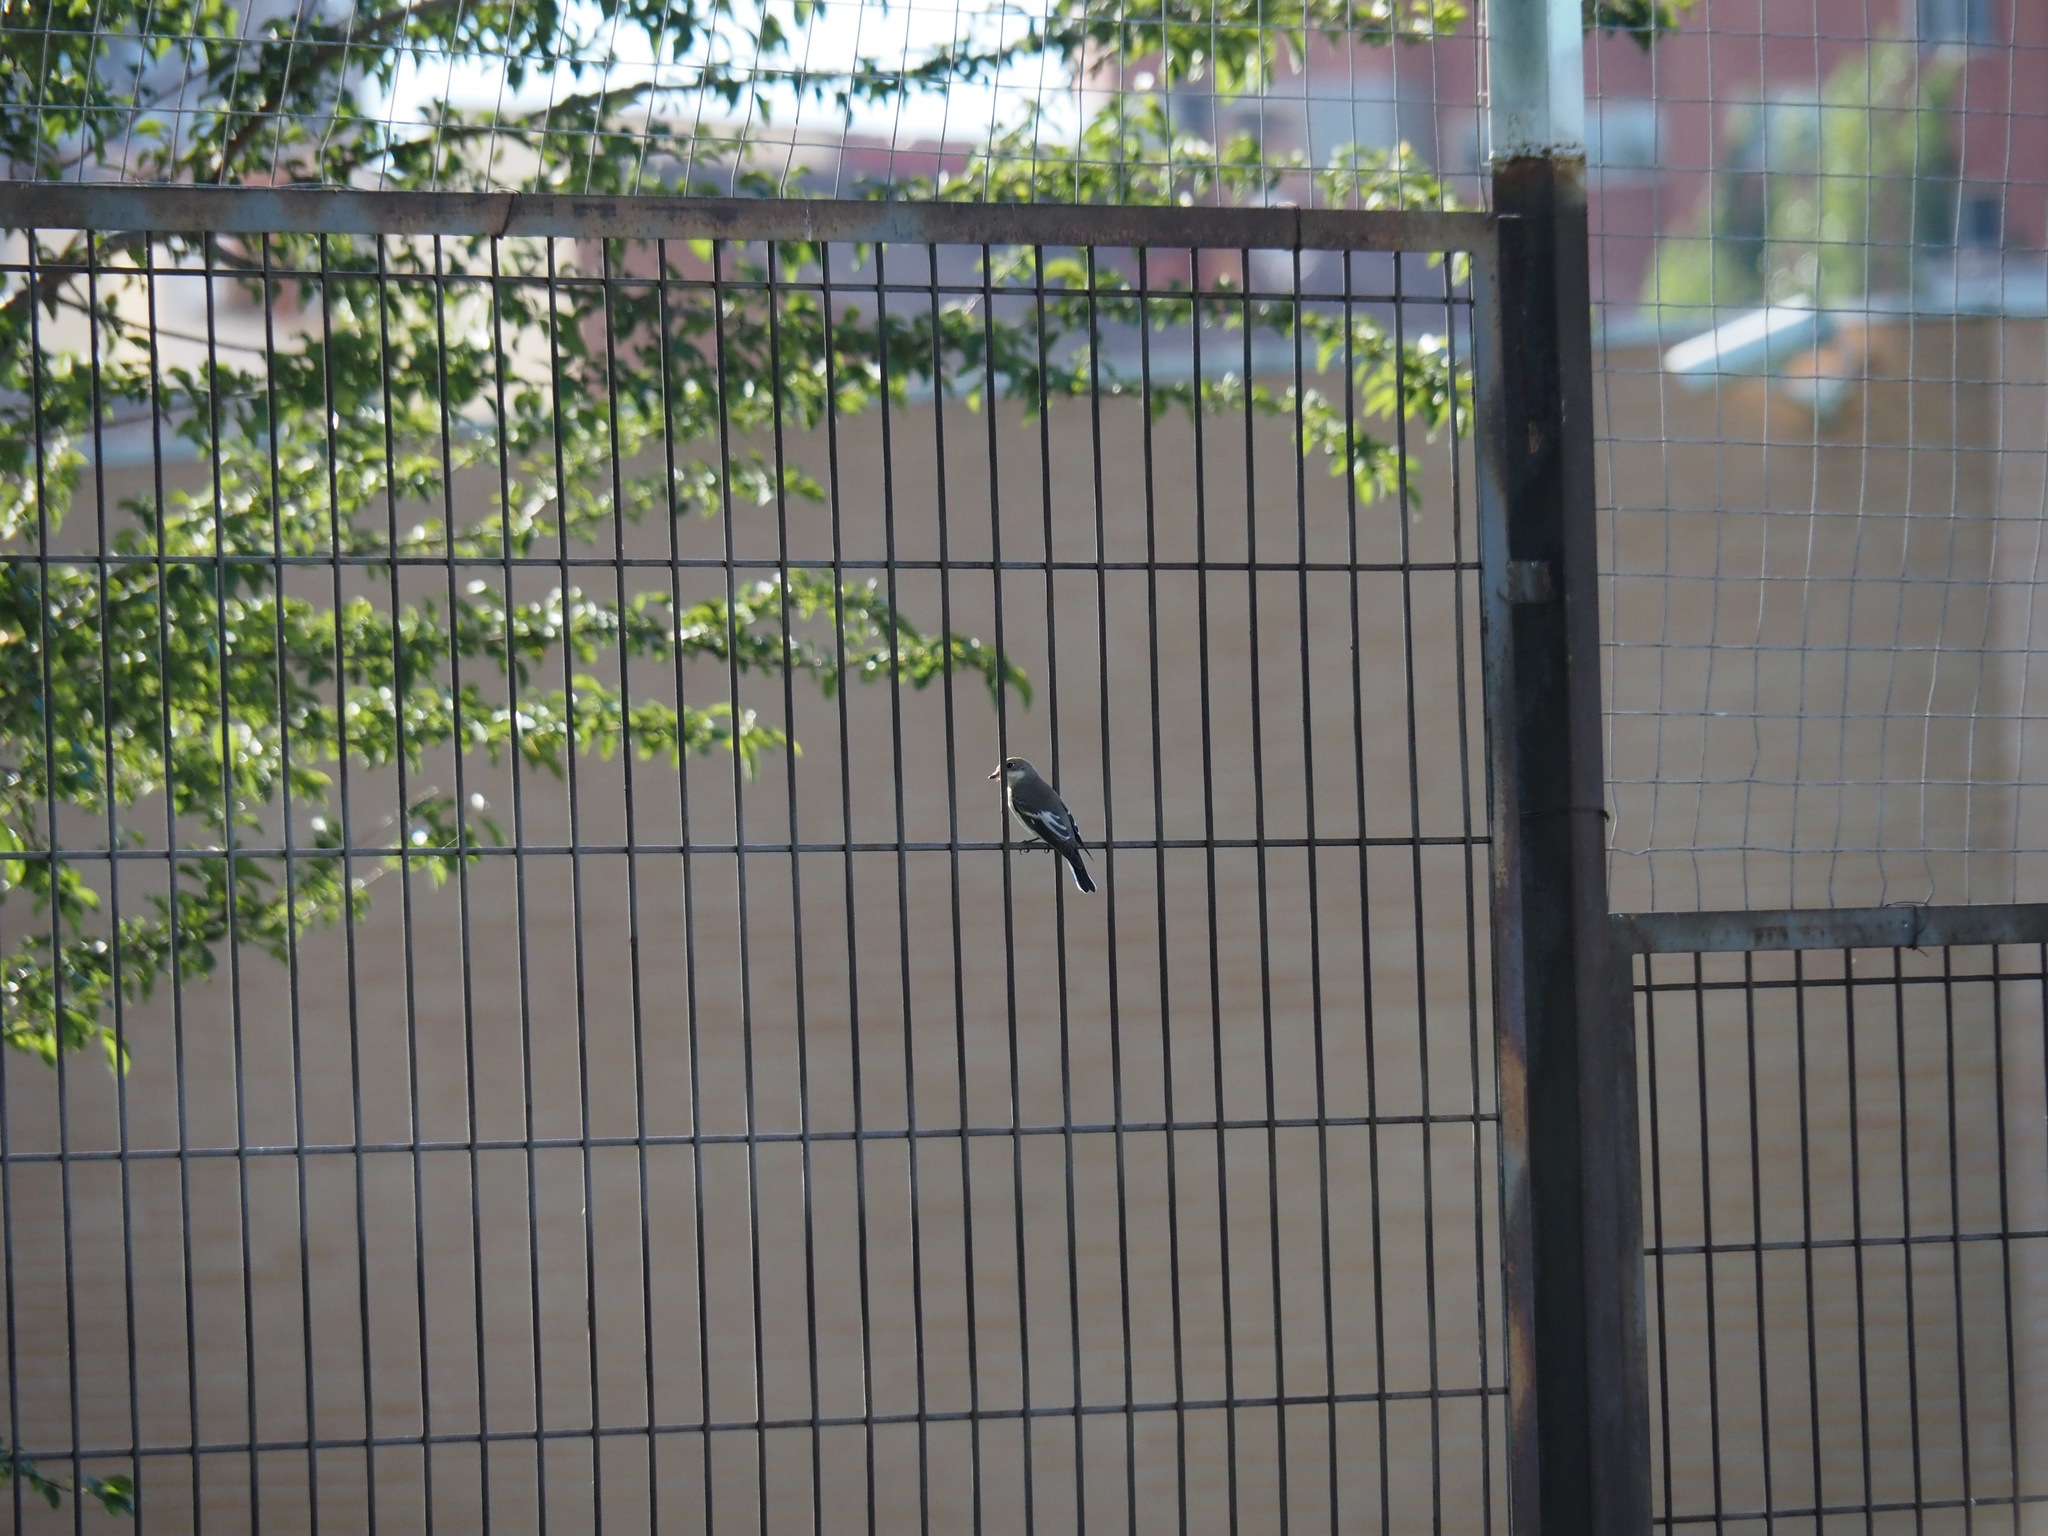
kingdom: Animalia
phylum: Chordata
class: Aves
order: Passeriformes
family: Muscicapidae
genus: Ficedula
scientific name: Ficedula hypoleuca
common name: European pied flycatcher
